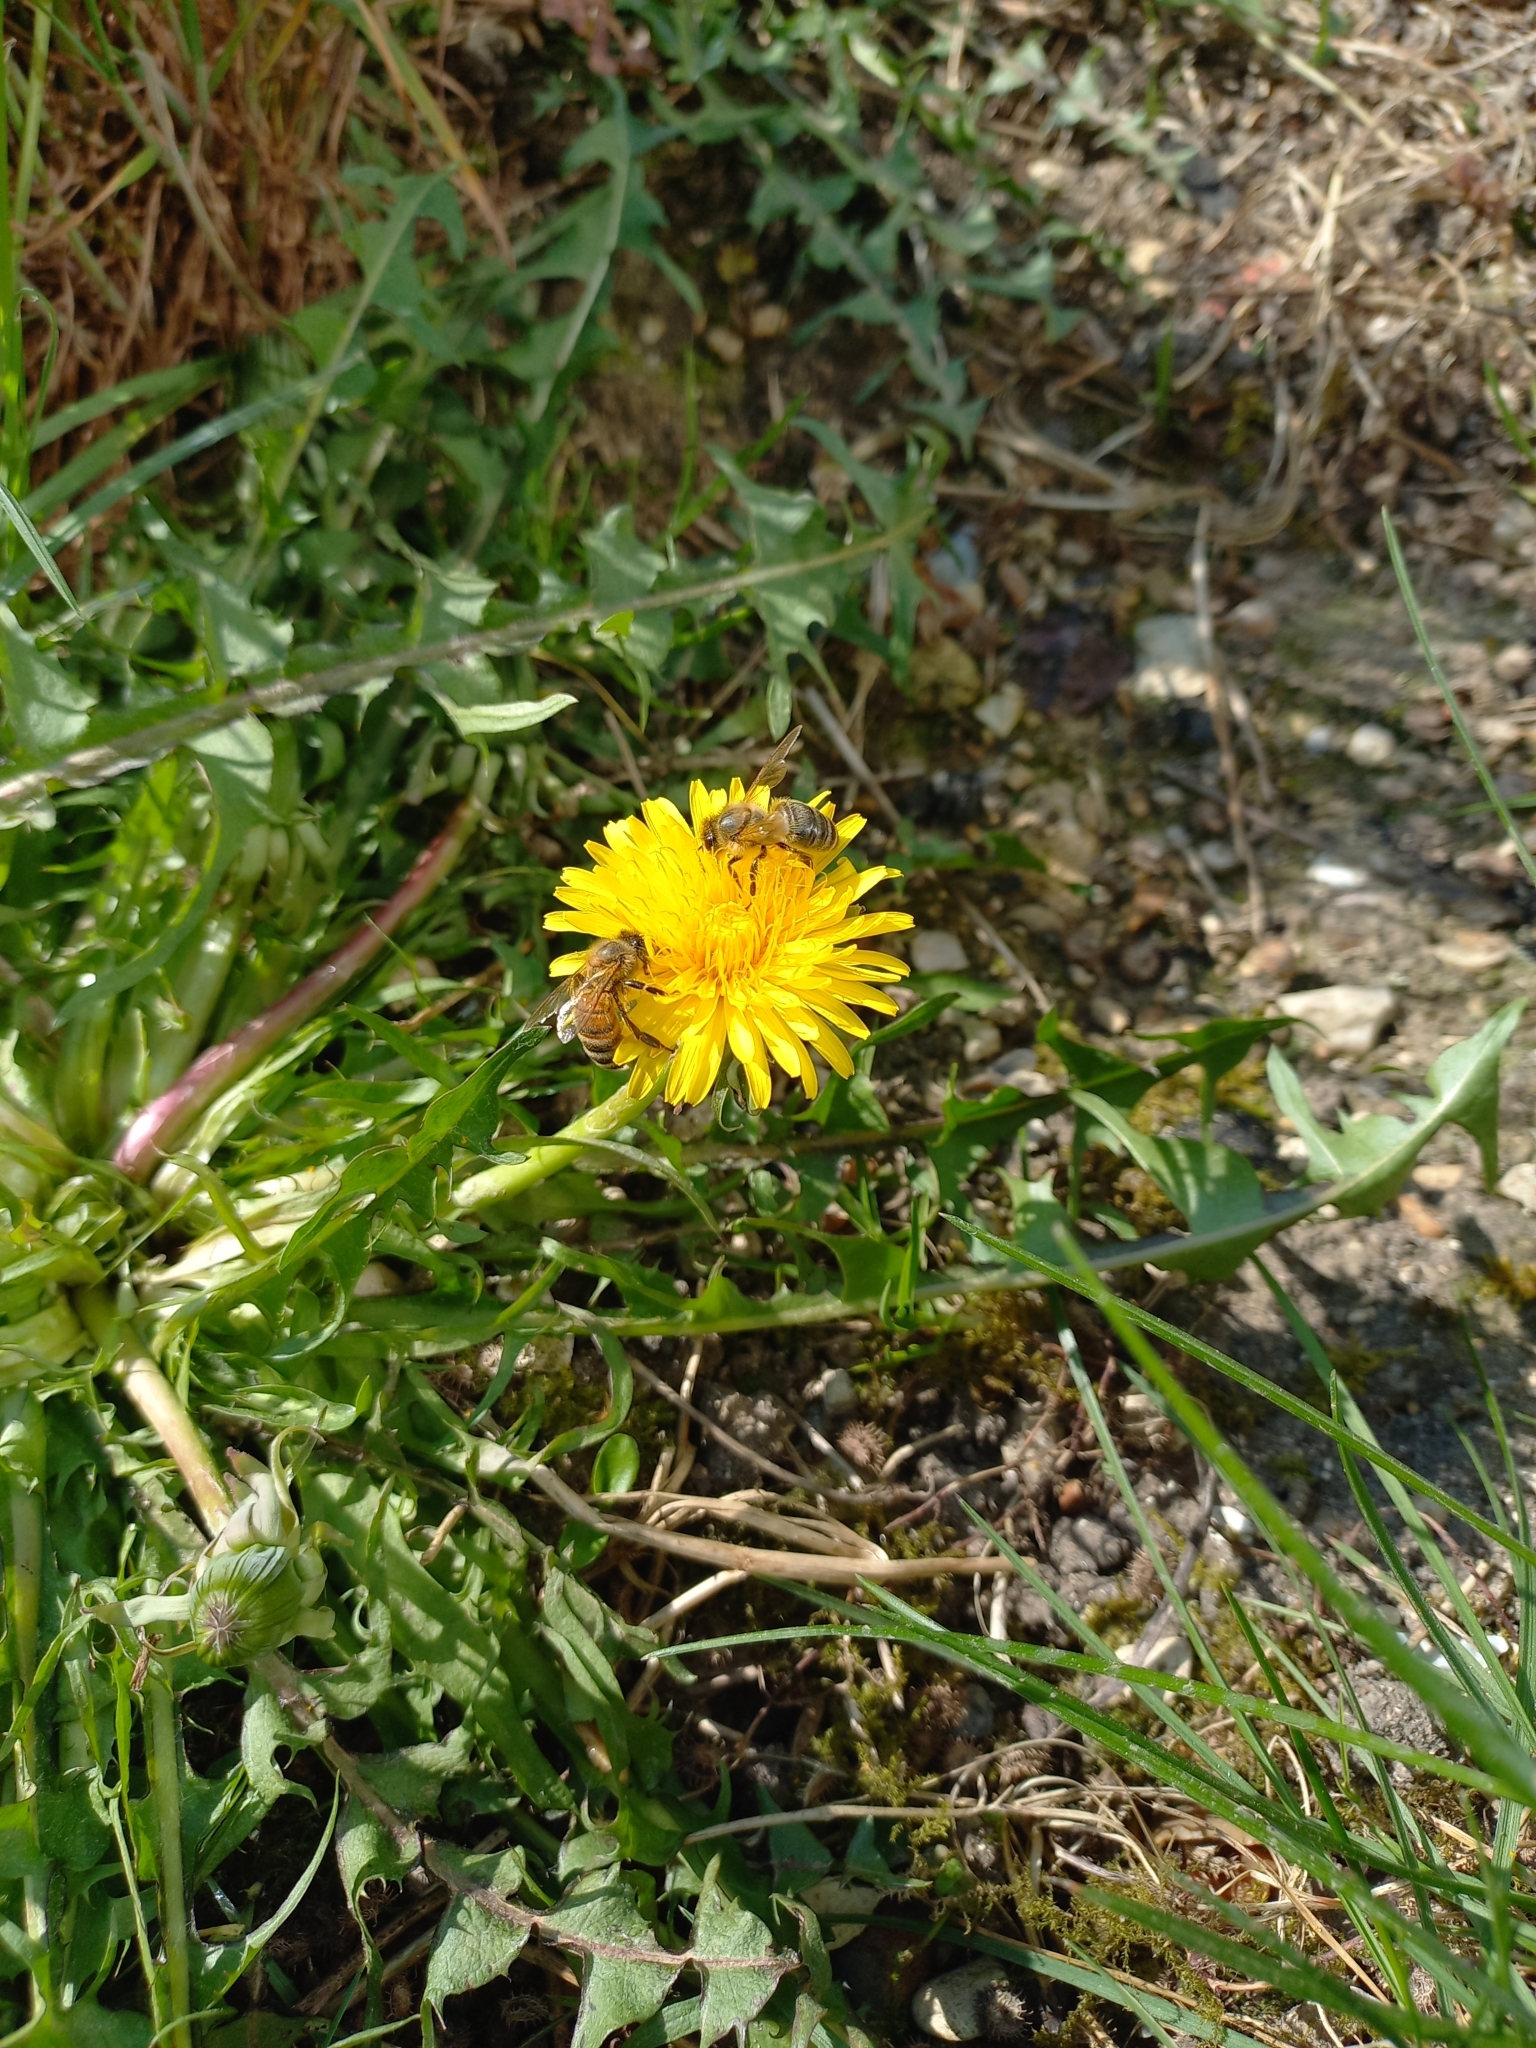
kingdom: Animalia
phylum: Arthropoda
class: Insecta
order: Hymenoptera
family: Apidae
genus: Apis
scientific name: Apis mellifera
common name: Honey bee
